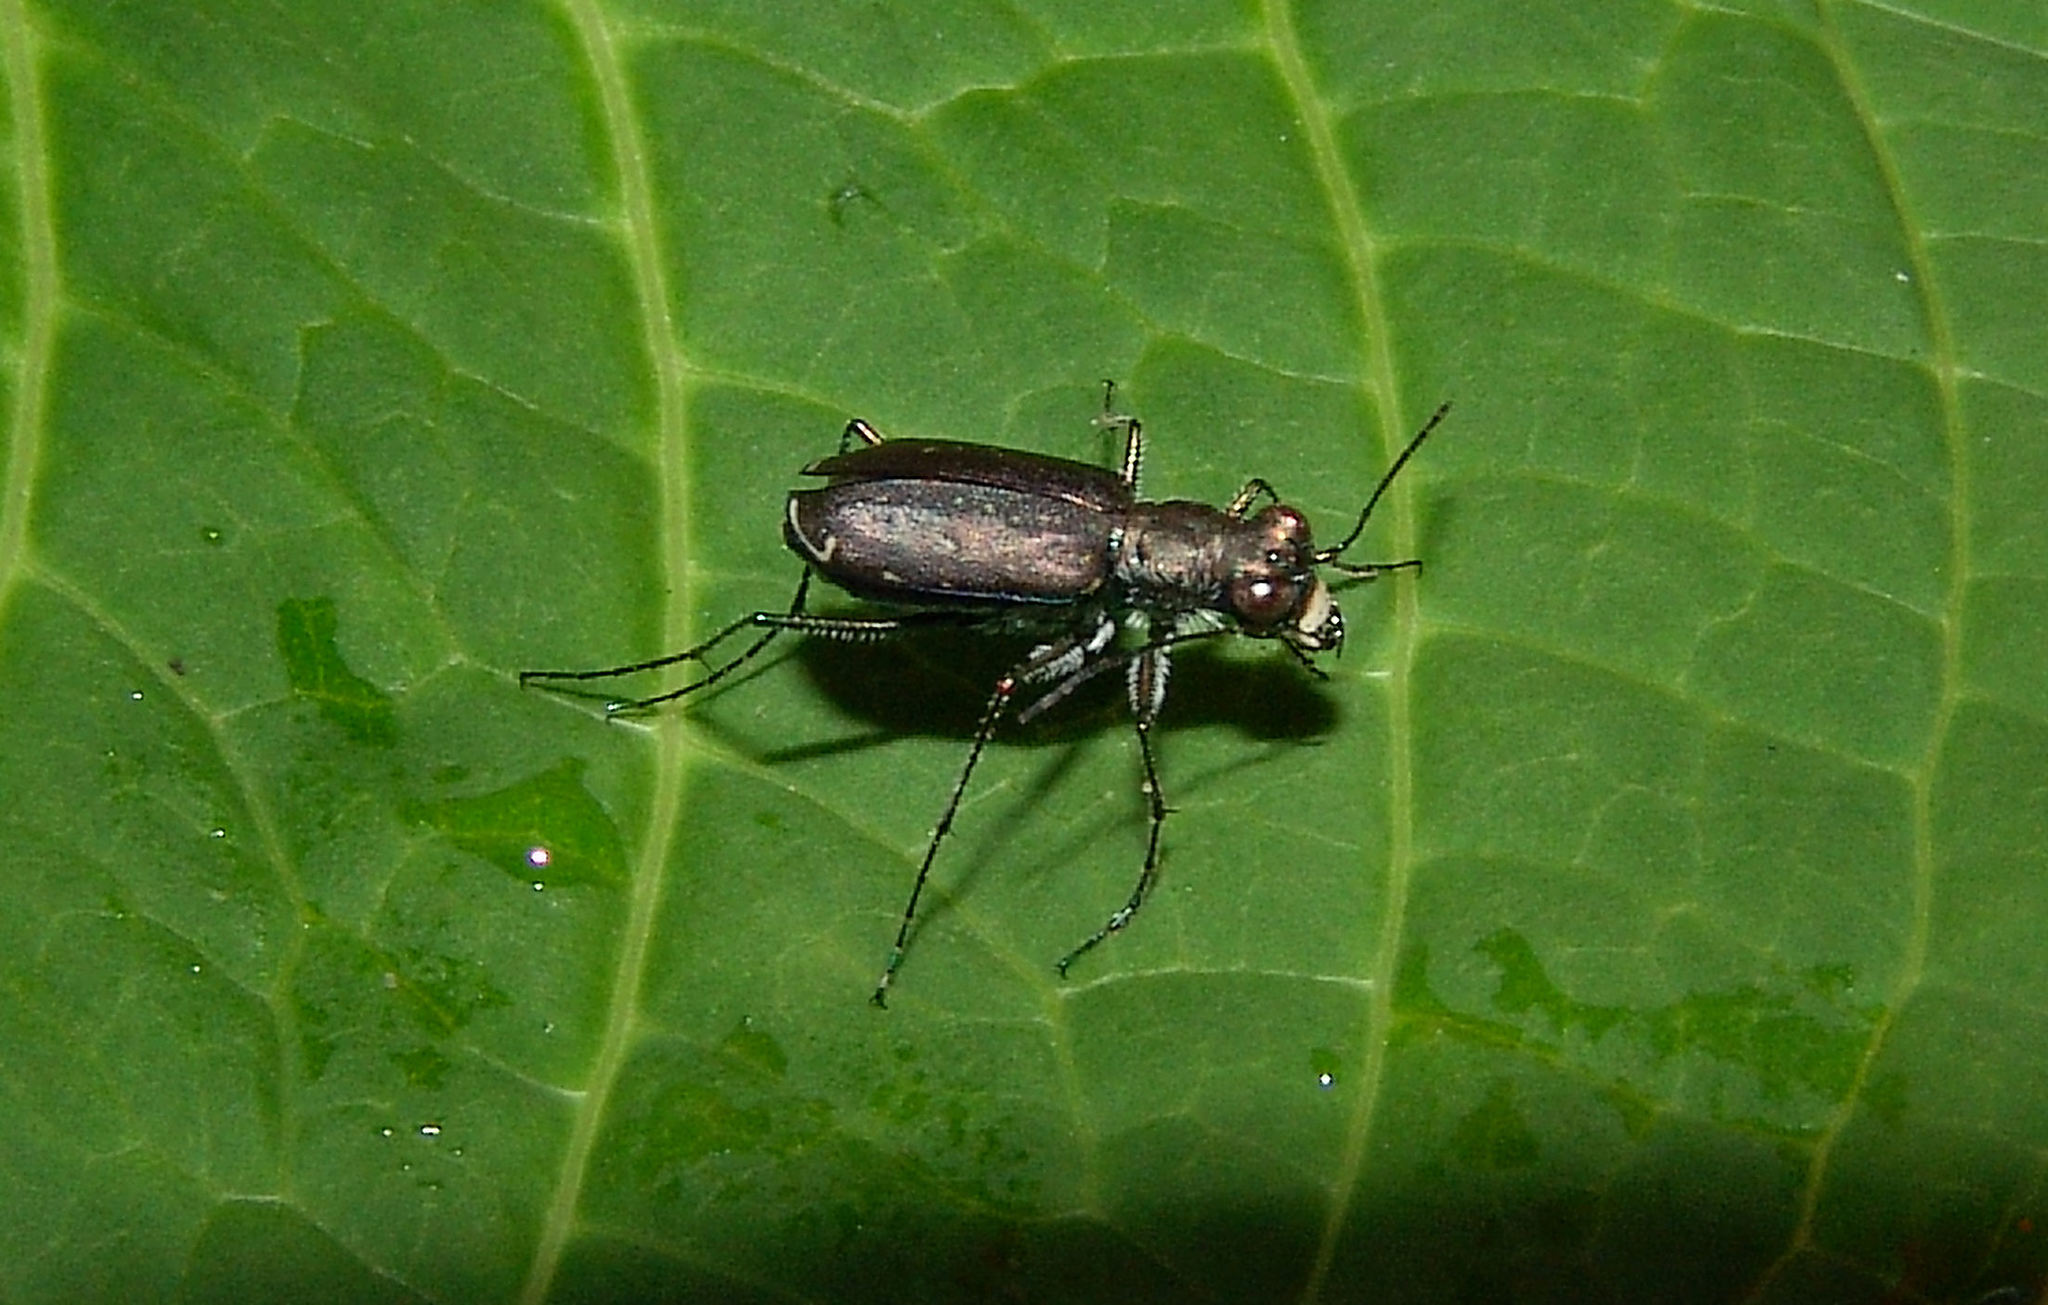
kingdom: Animalia
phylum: Arthropoda
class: Insecta
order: Coleoptera
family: Carabidae
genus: Cicindela
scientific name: Cicindela punctulata
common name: Punctured tiger beetle
